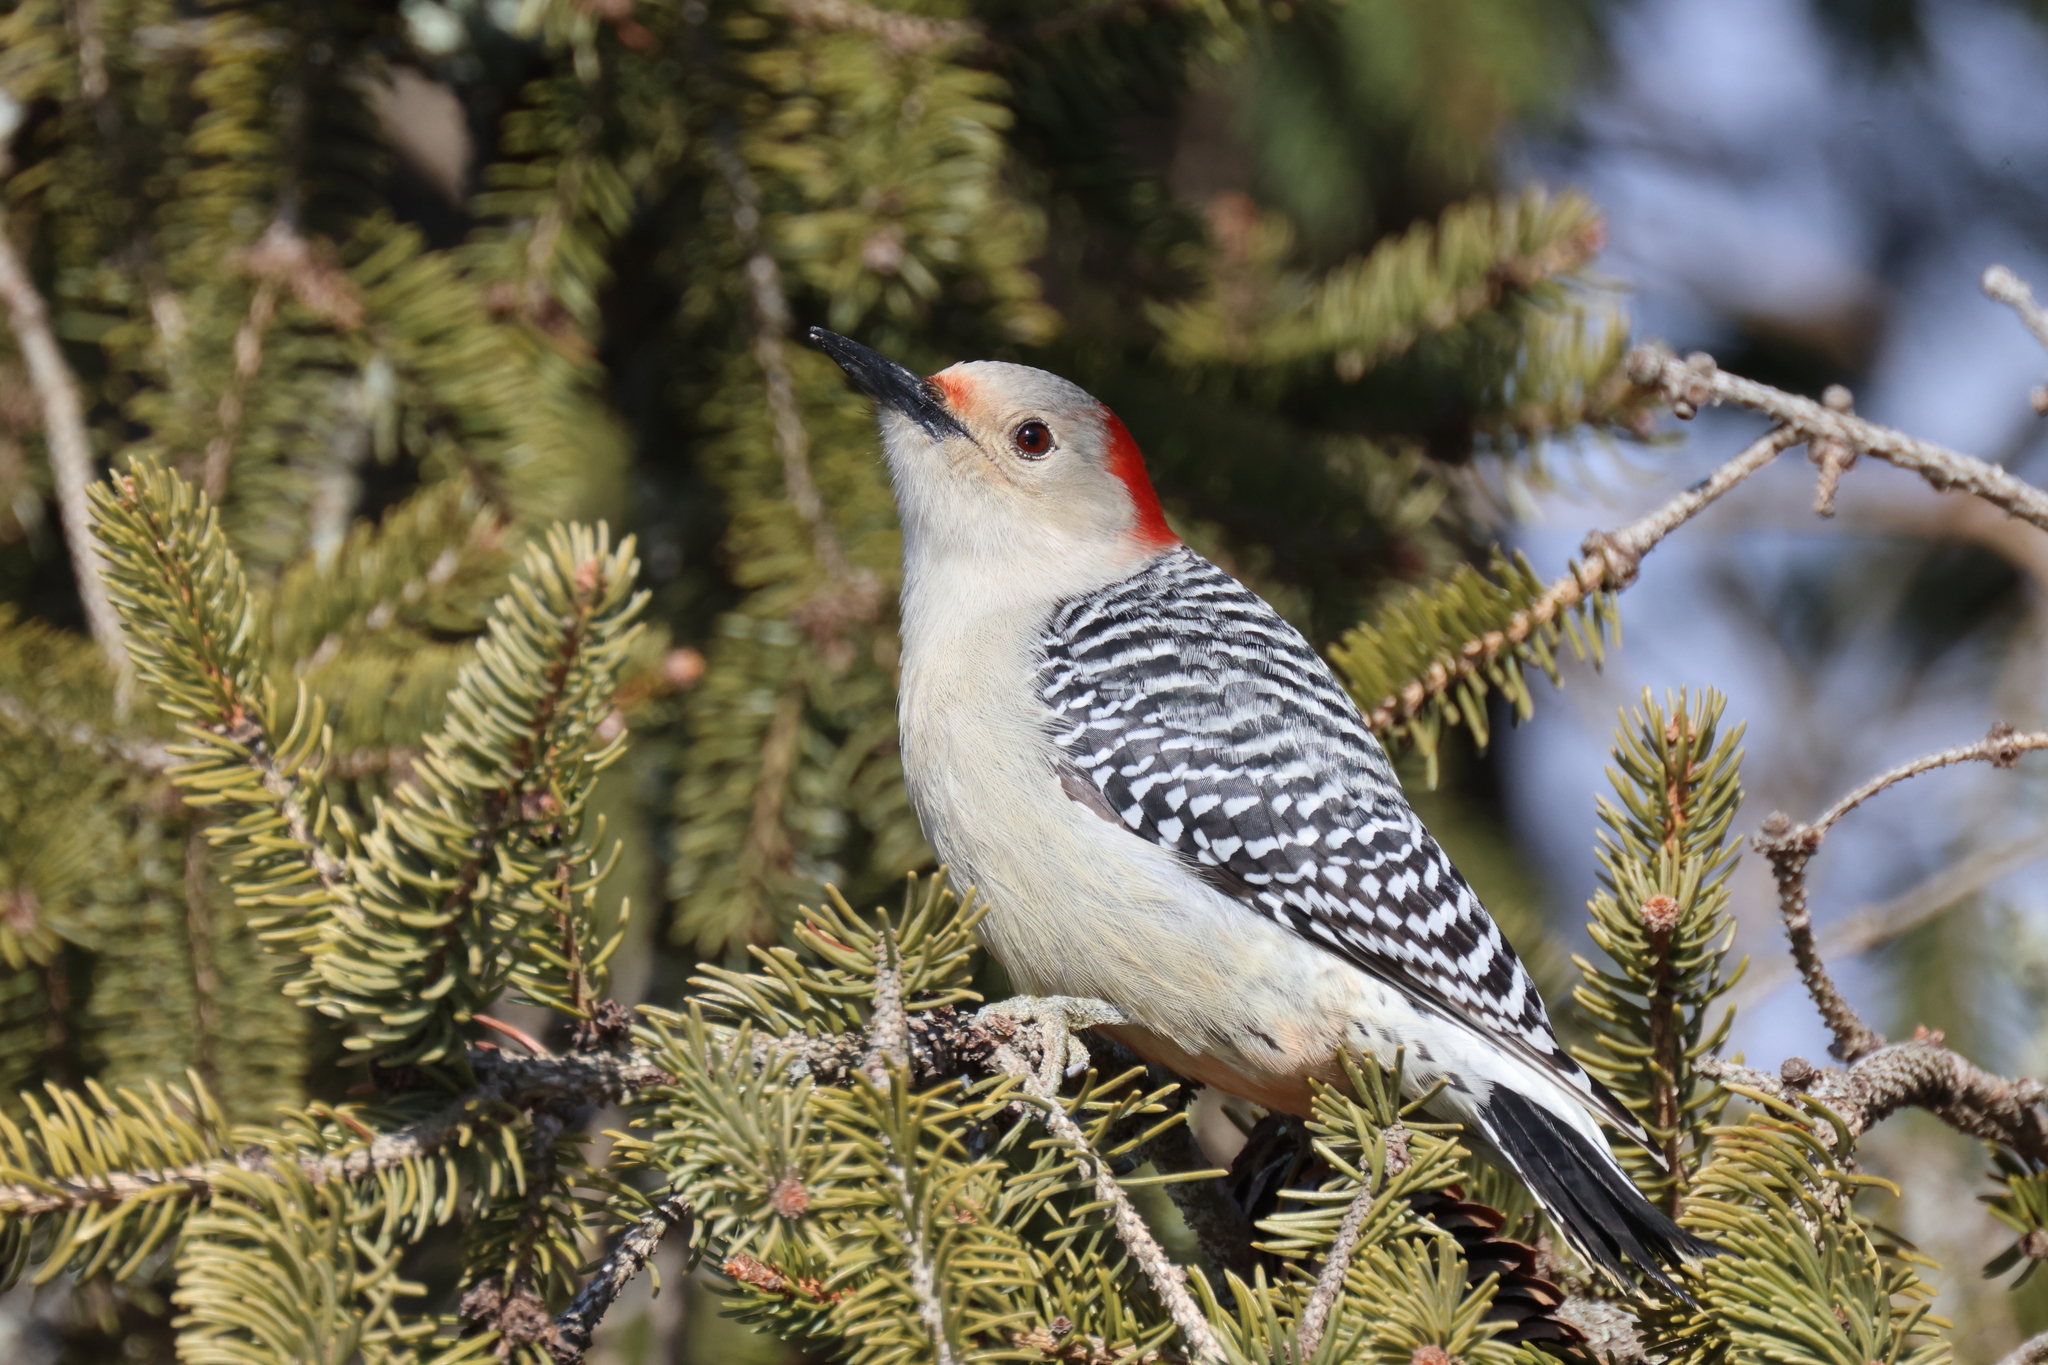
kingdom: Animalia
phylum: Chordata
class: Aves
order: Piciformes
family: Picidae
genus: Melanerpes
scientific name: Melanerpes carolinus
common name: Red-bellied woodpecker
